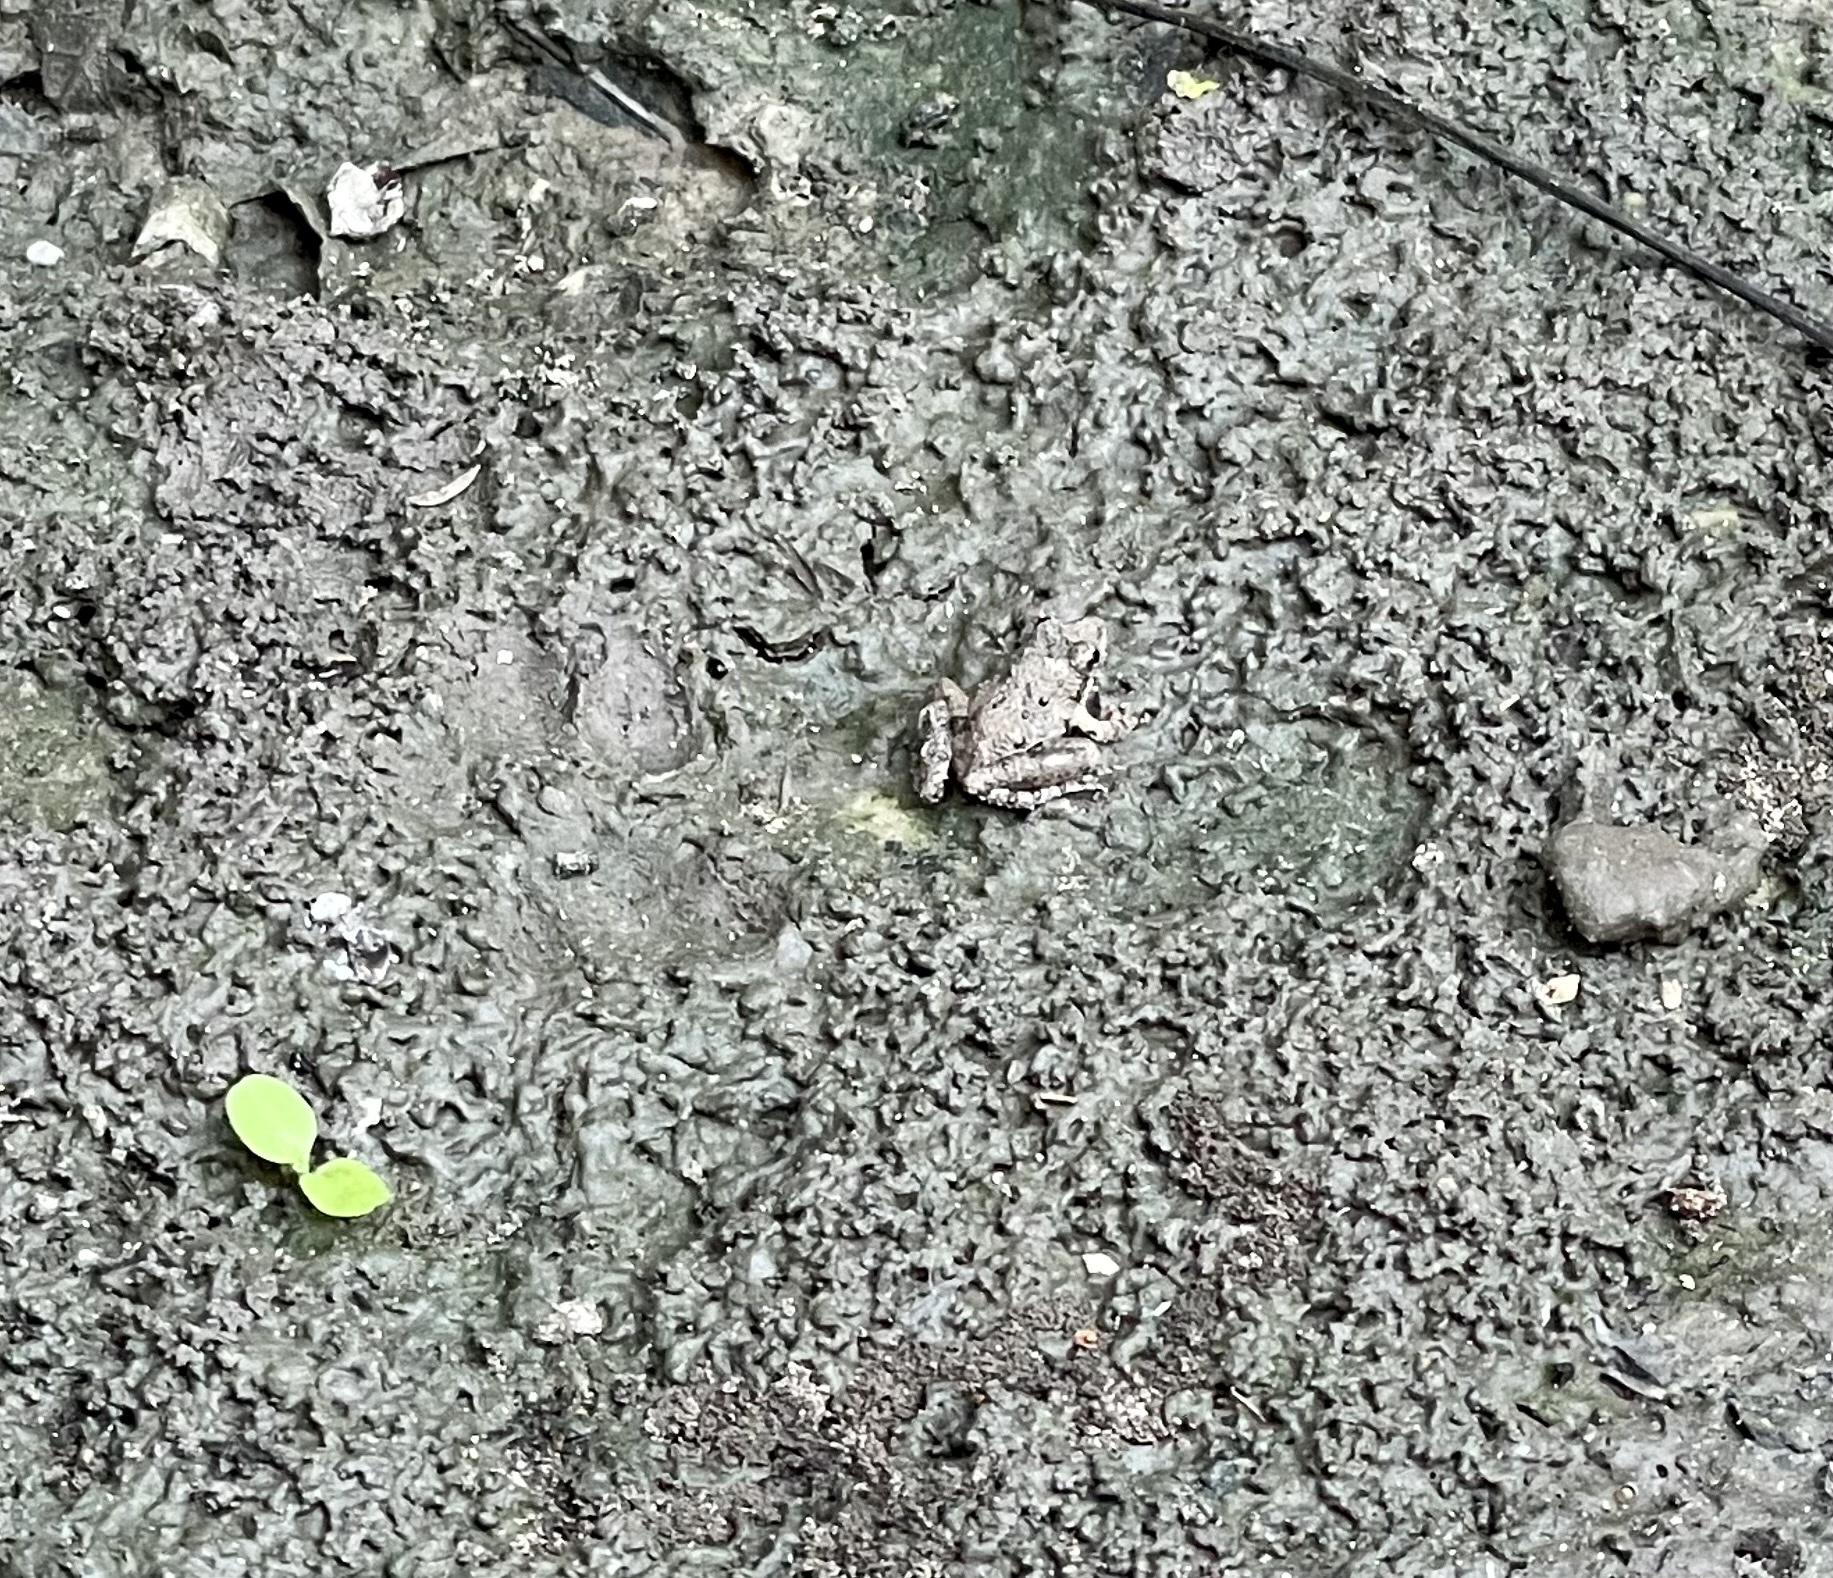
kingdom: Animalia
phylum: Chordata
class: Amphibia
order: Anura
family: Hylidae
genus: Acris
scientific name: Acris blanchardi
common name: Blanchard's cricket frog
